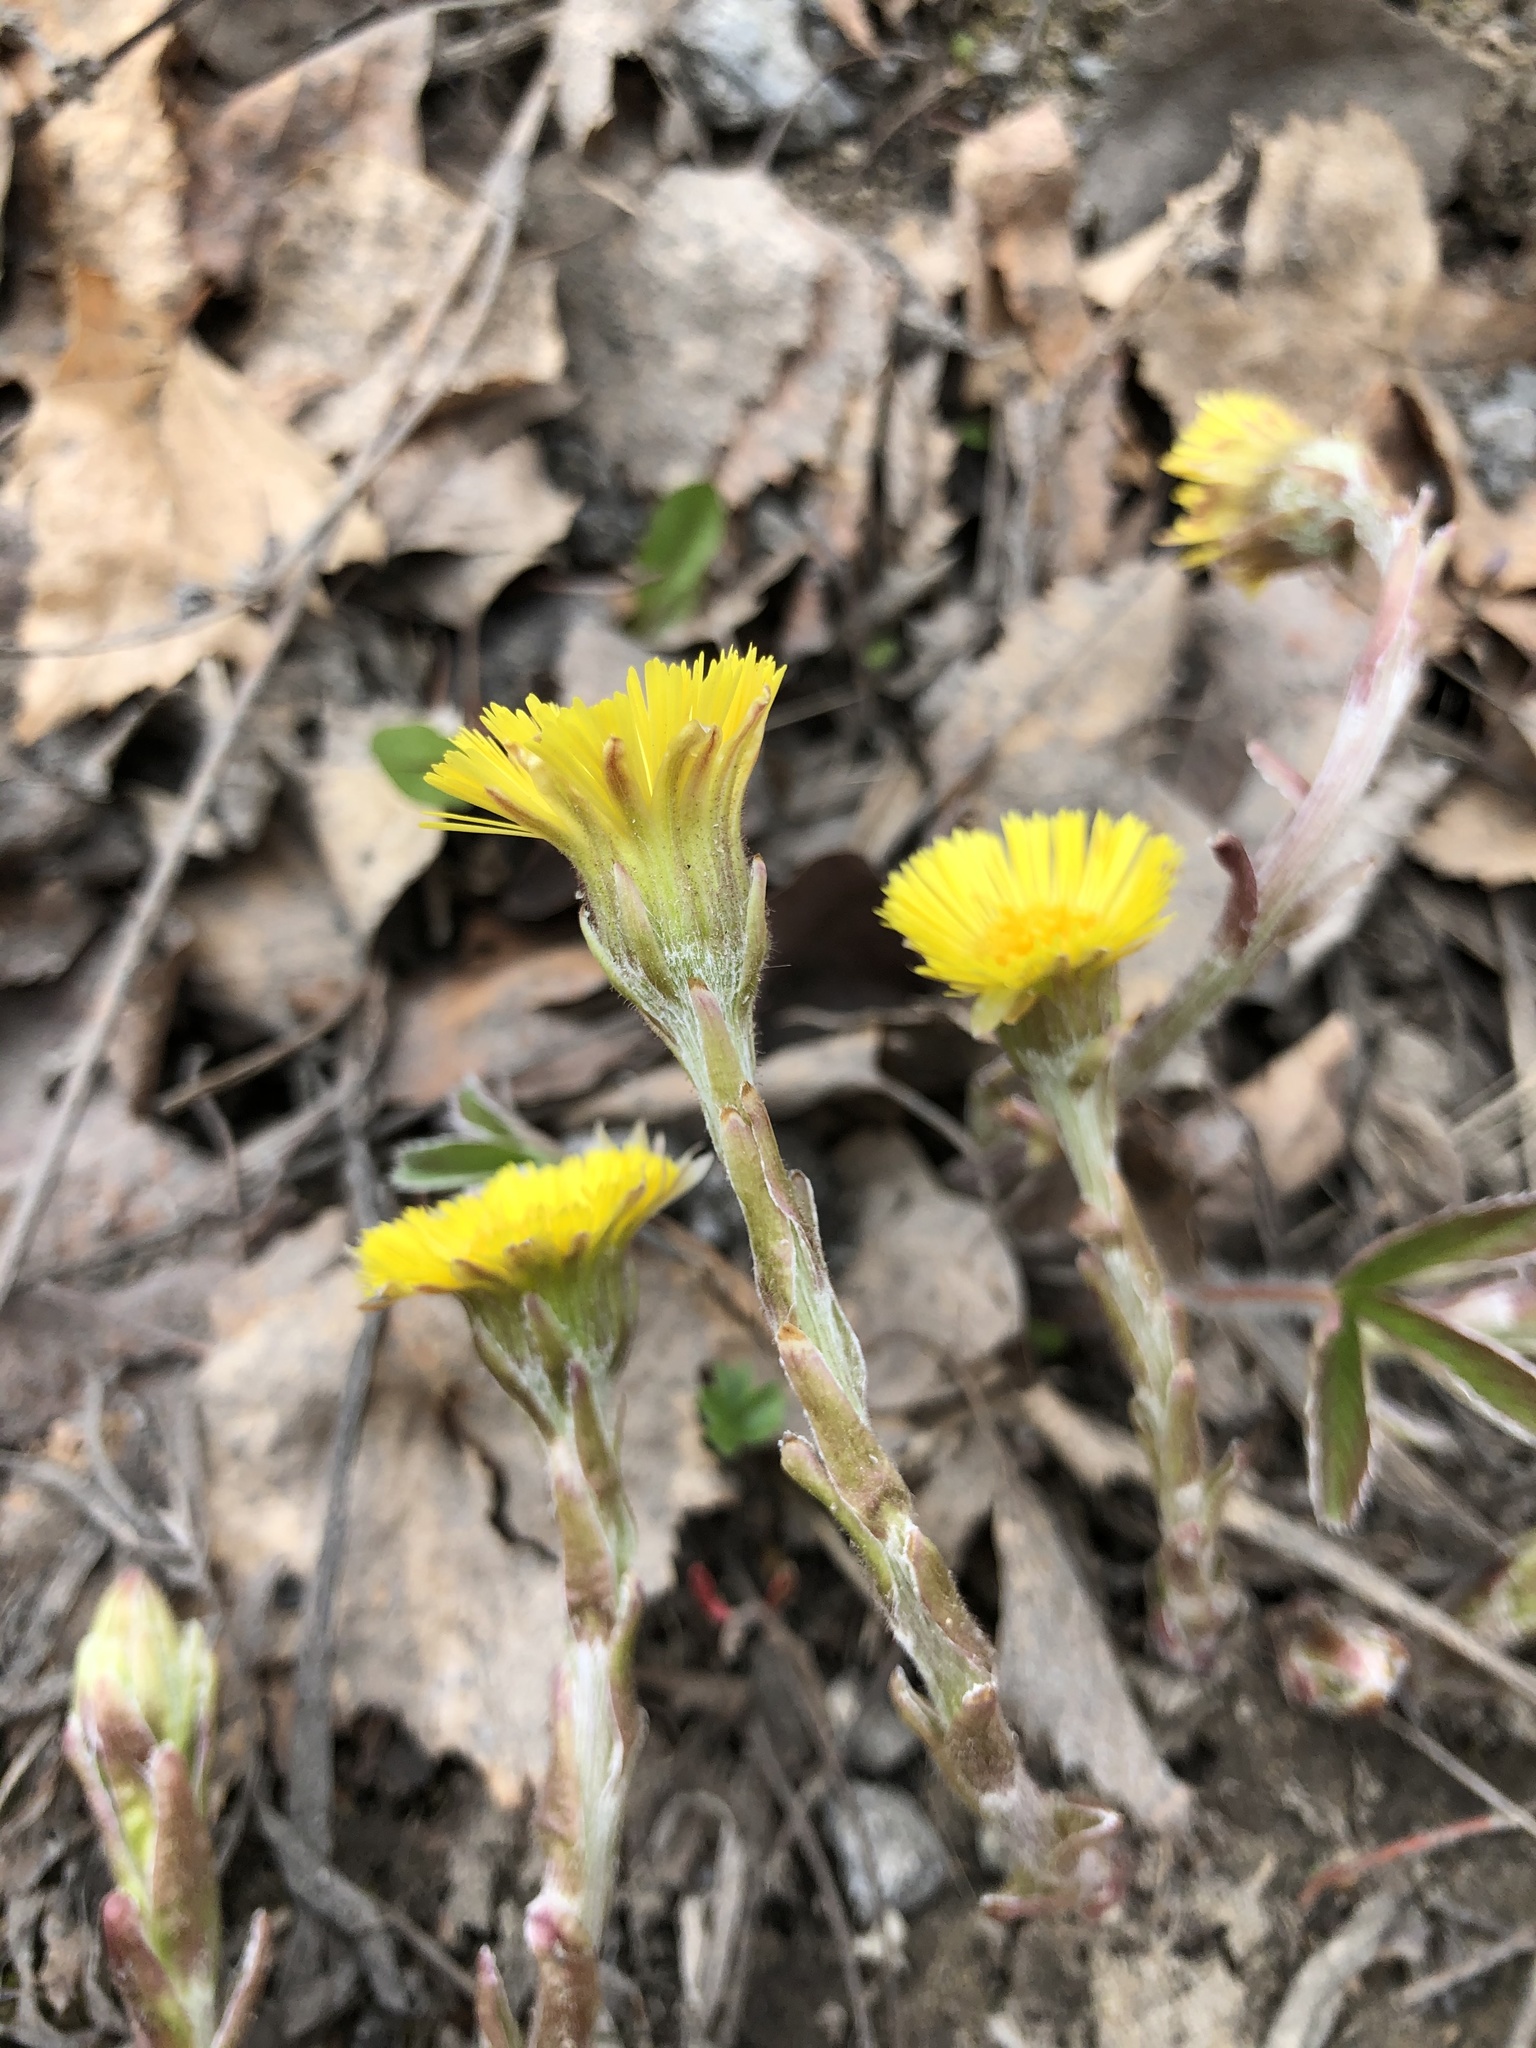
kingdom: Plantae
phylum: Tracheophyta
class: Magnoliopsida
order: Asterales
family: Asteraceae
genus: Tussilago
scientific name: Tussilago farfara
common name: Coltsfoot
